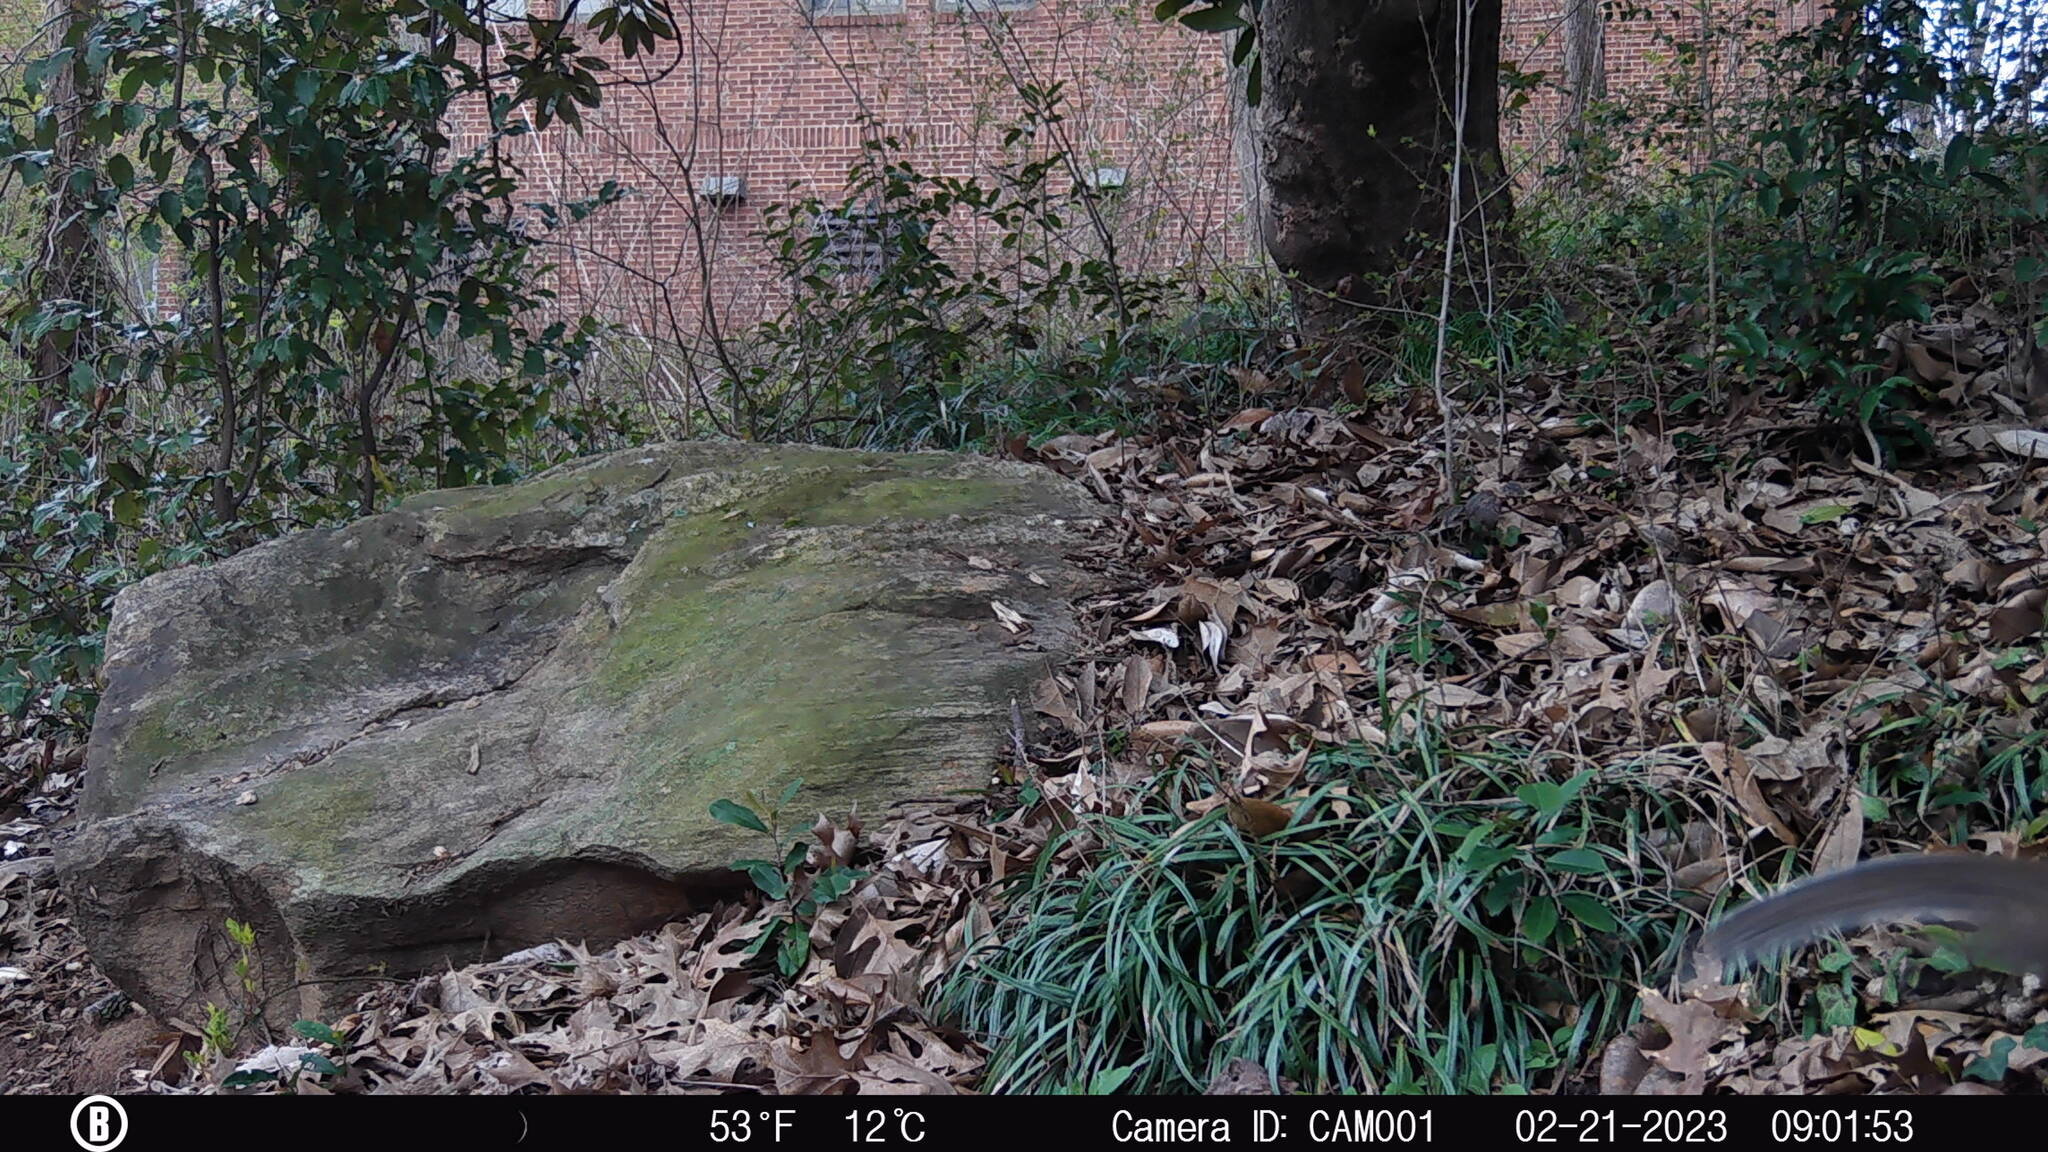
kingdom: Animalia
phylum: Chordata
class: Mammalia
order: Rodentia
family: Sciuridae
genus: Sciurus
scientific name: Sciurus carolinensis
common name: Eastern gray squirrel
